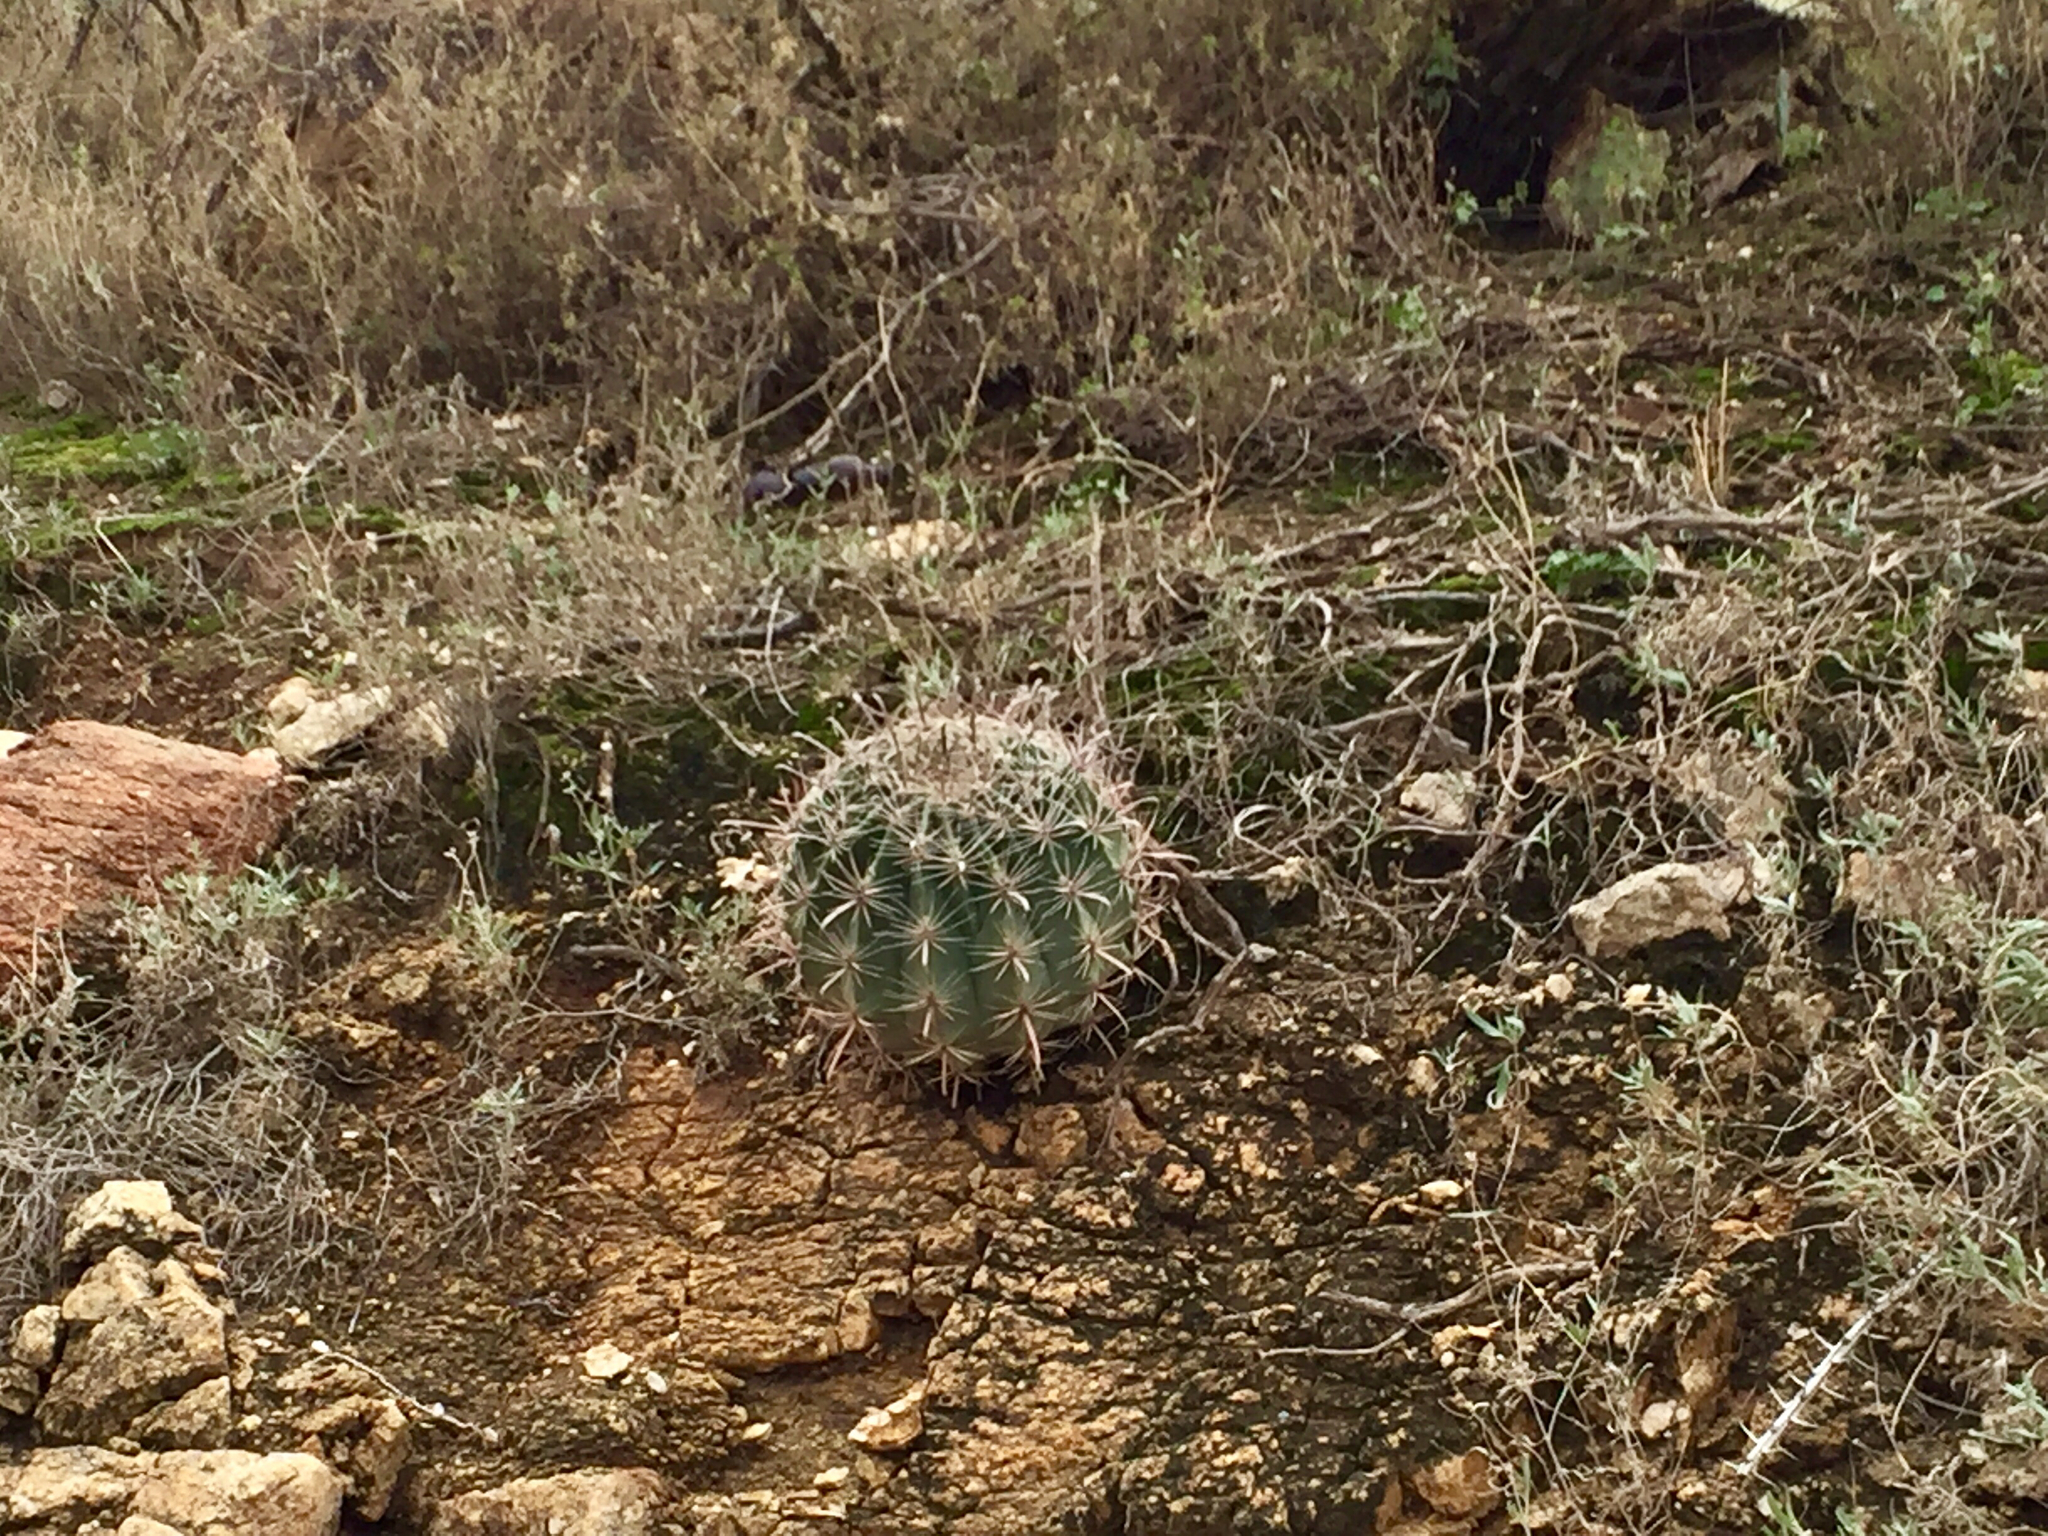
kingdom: Plantae
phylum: Tracheophyta
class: Magnoliopsida
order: Caryophyllales
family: Cactaceae
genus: Ferocactus
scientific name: Ferocactus wislizeni
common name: Candy barrel cactus
